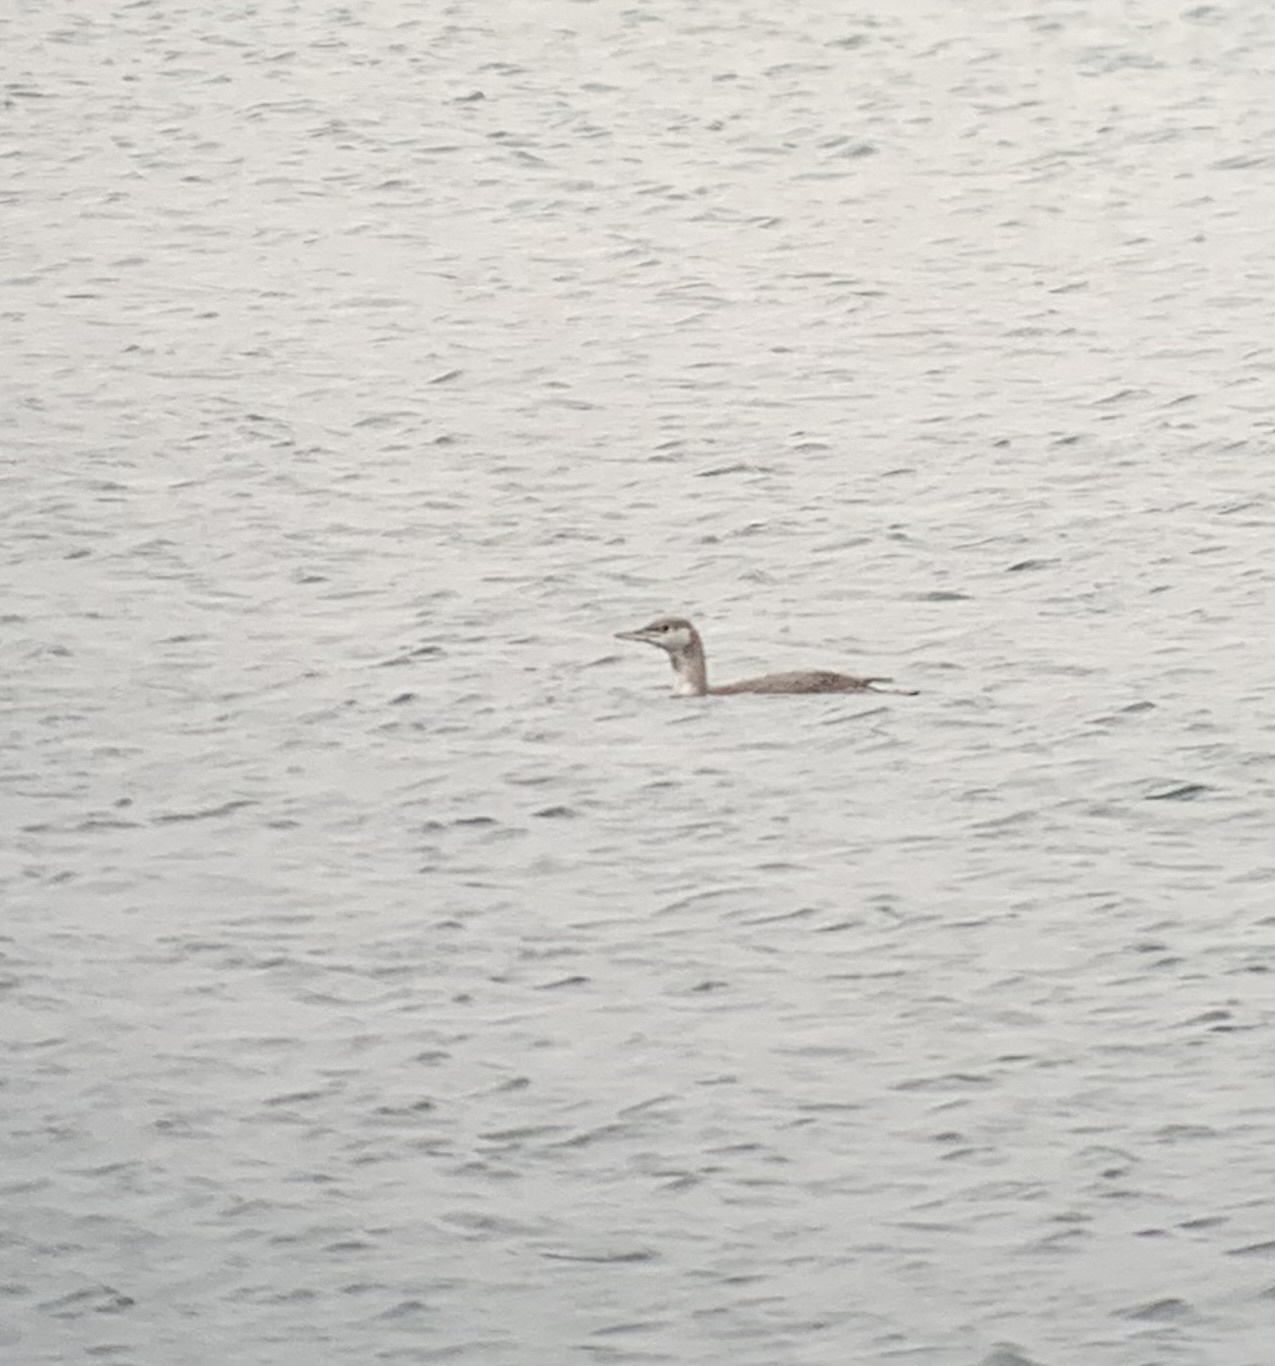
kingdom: Animalia
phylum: Chordata
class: Aves
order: Gaviiformes
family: Gaviidae
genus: Gavia
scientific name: Gavia stellata
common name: Red-throated loon
